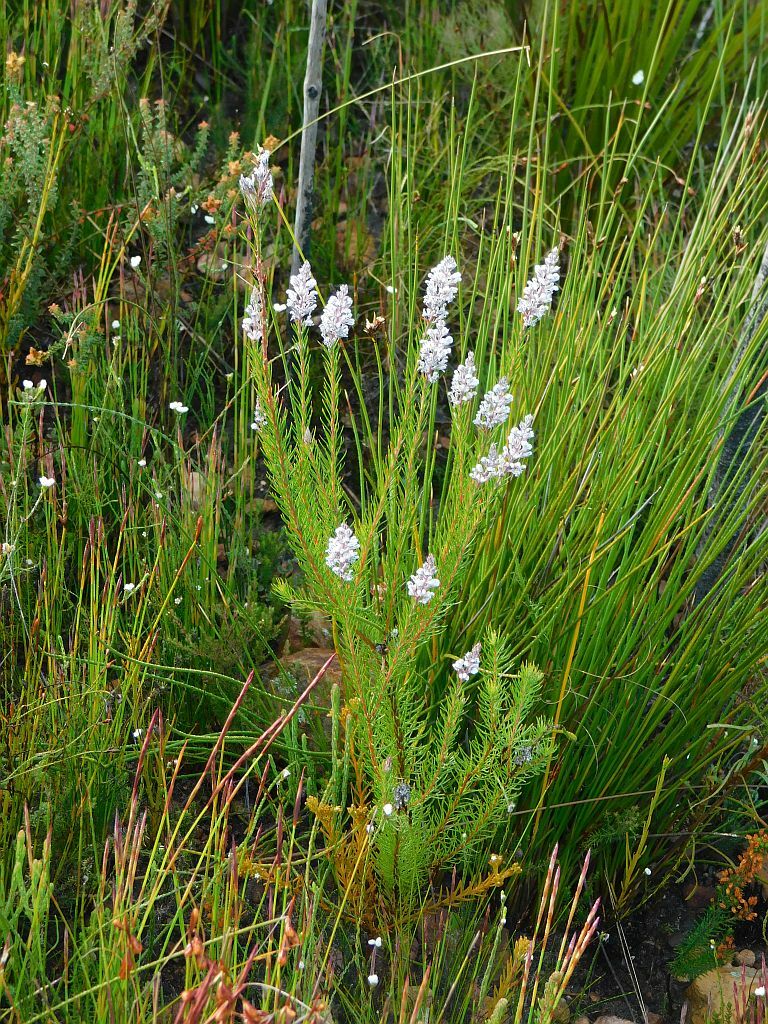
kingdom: Plantae
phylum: Tracheophyta
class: Magnoliopsida
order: Proteales
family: Proteaceae
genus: Spatalla
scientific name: Spatalla propinqua
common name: Lax spoon
